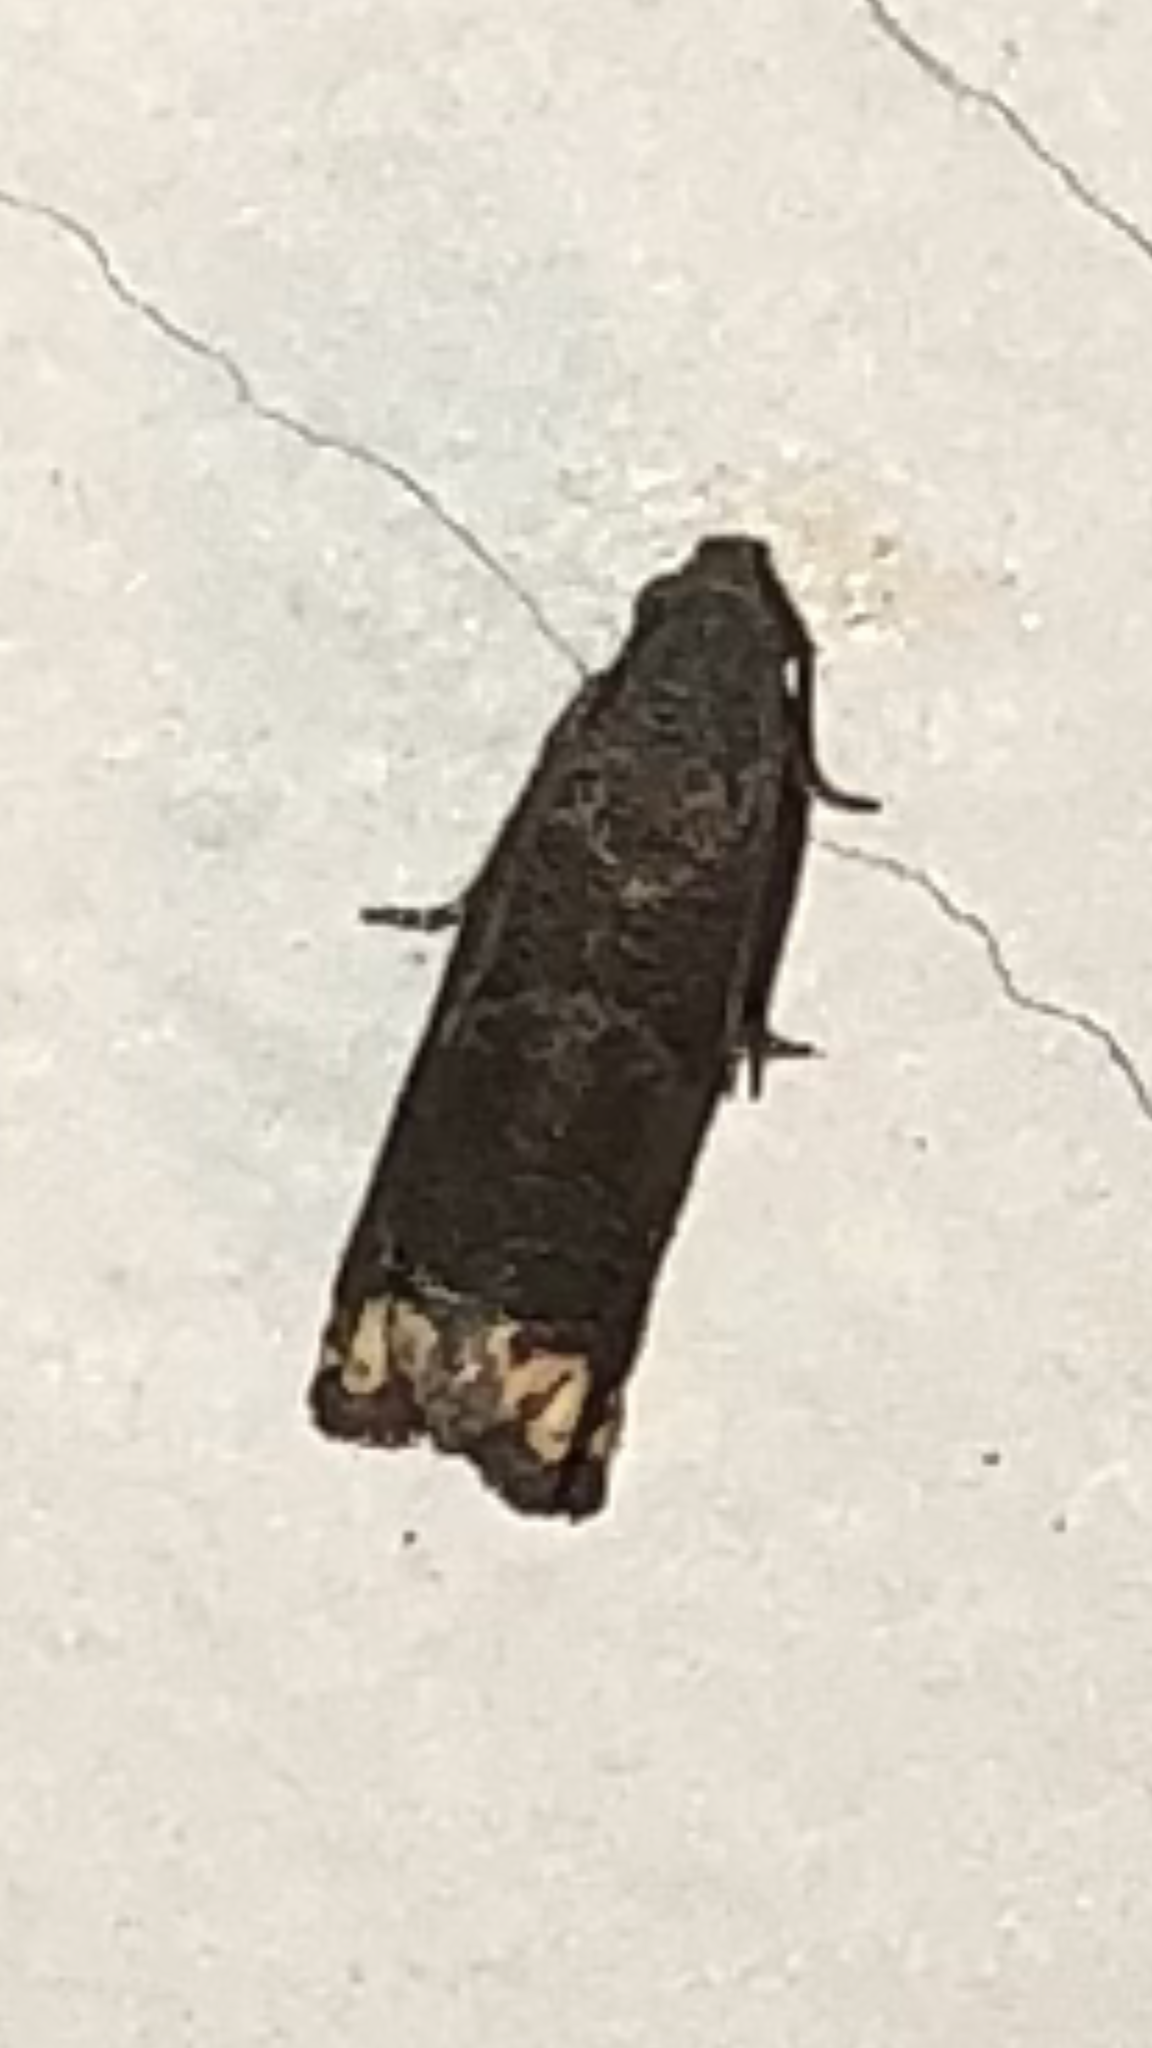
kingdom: Animalia
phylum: Arthropoda
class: Insecta
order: Lepidoptera
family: Tortricidae
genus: Epiblema
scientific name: Epiblema strenuana
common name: Ragweed borer moth
